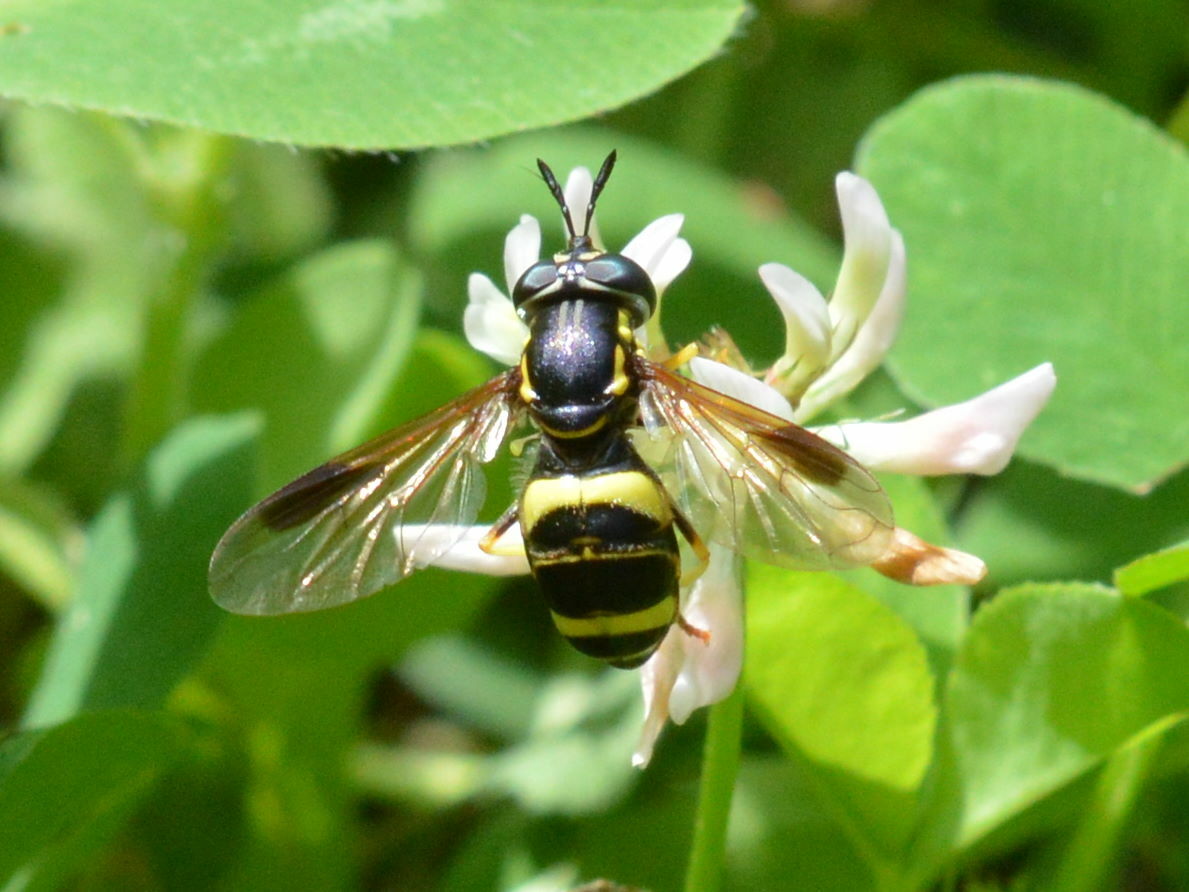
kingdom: Animalia
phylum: Arthropoda
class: Insecta
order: Diptera
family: Syrphidae
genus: Chrysotoxum
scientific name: Chrysotoxum bicincta
